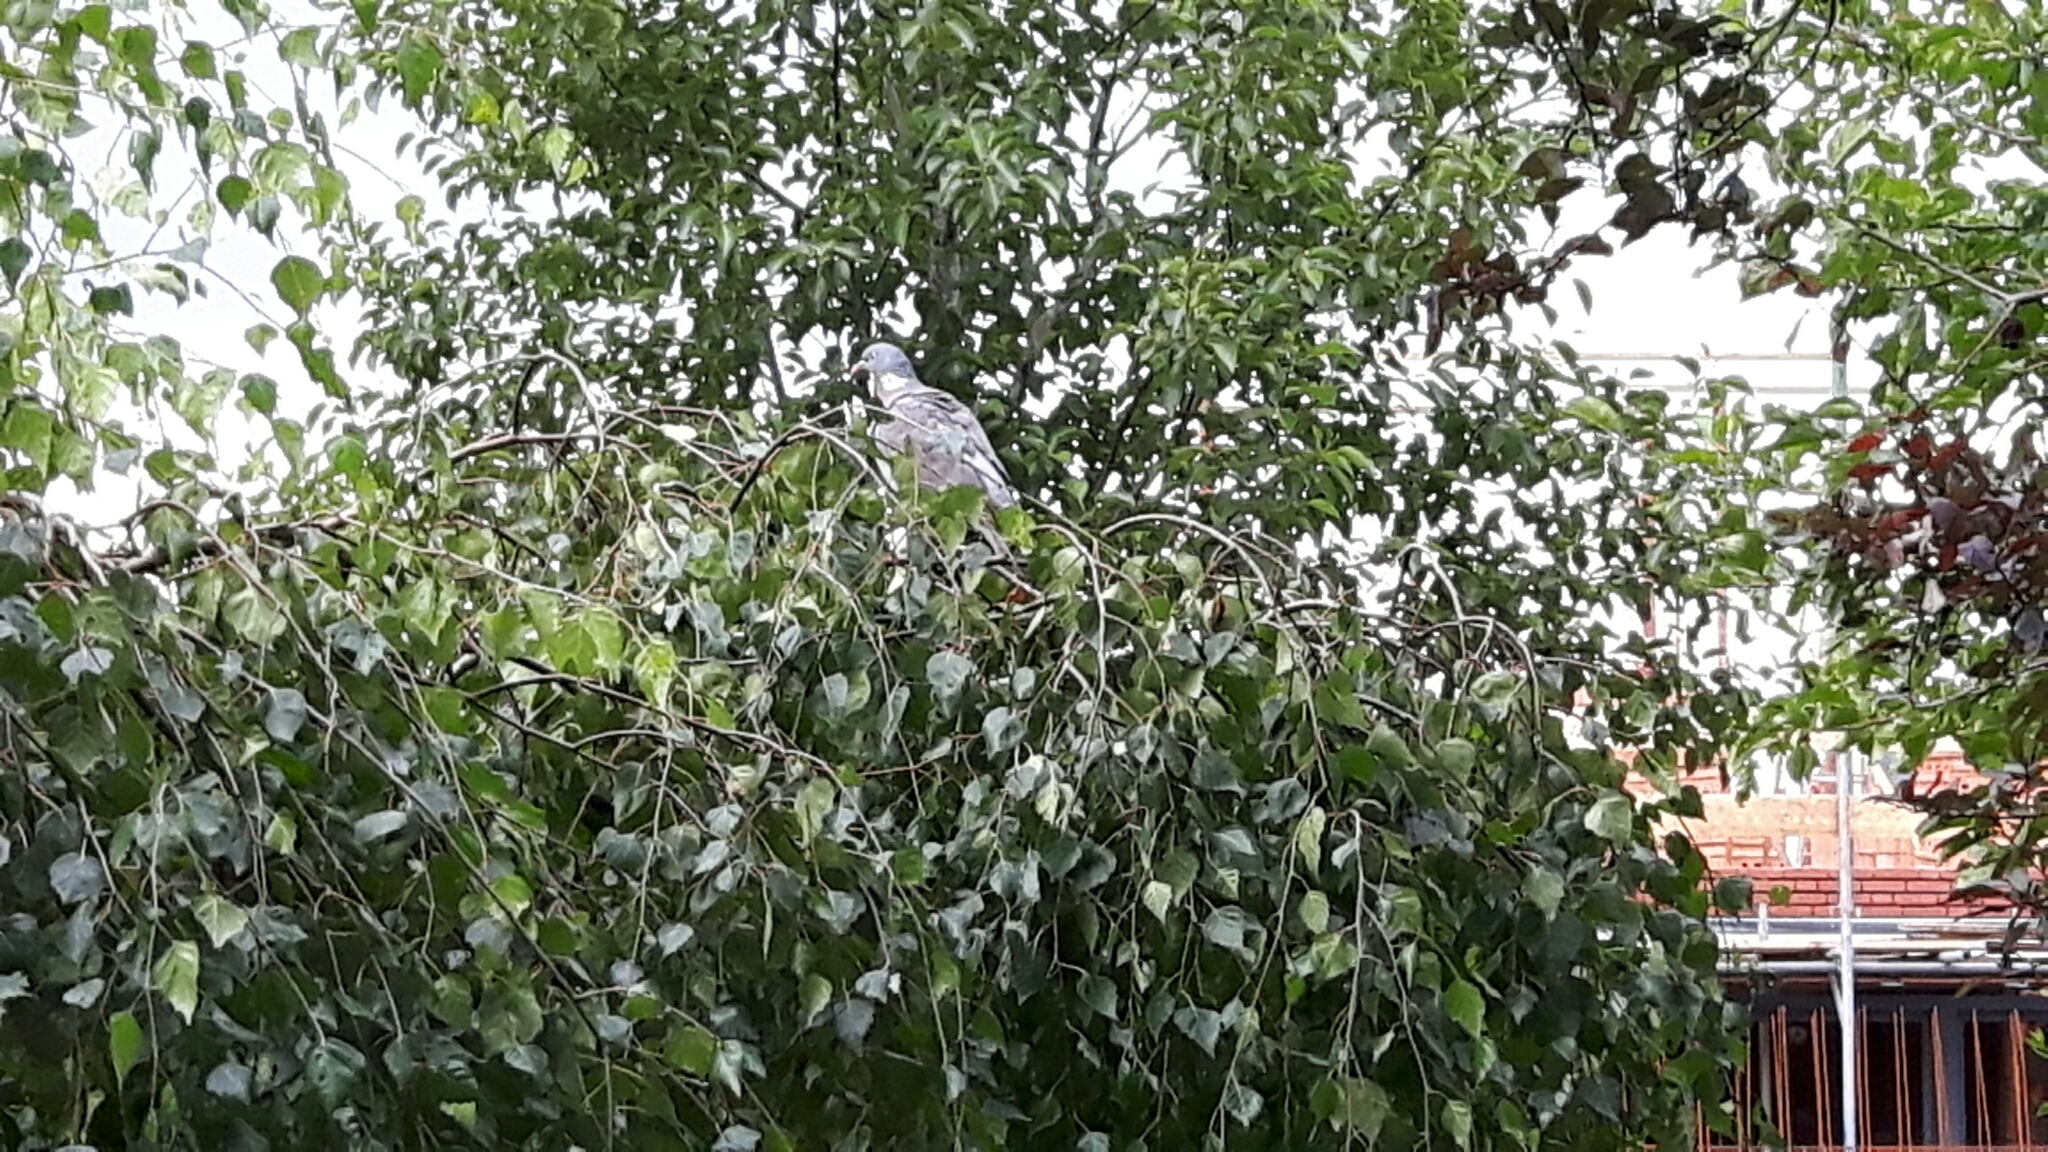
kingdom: Animalia
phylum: Chordata
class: Aves
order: Columbiformes
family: Columbidae
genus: Columba
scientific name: Columba palumbus
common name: Common wood pigeon
